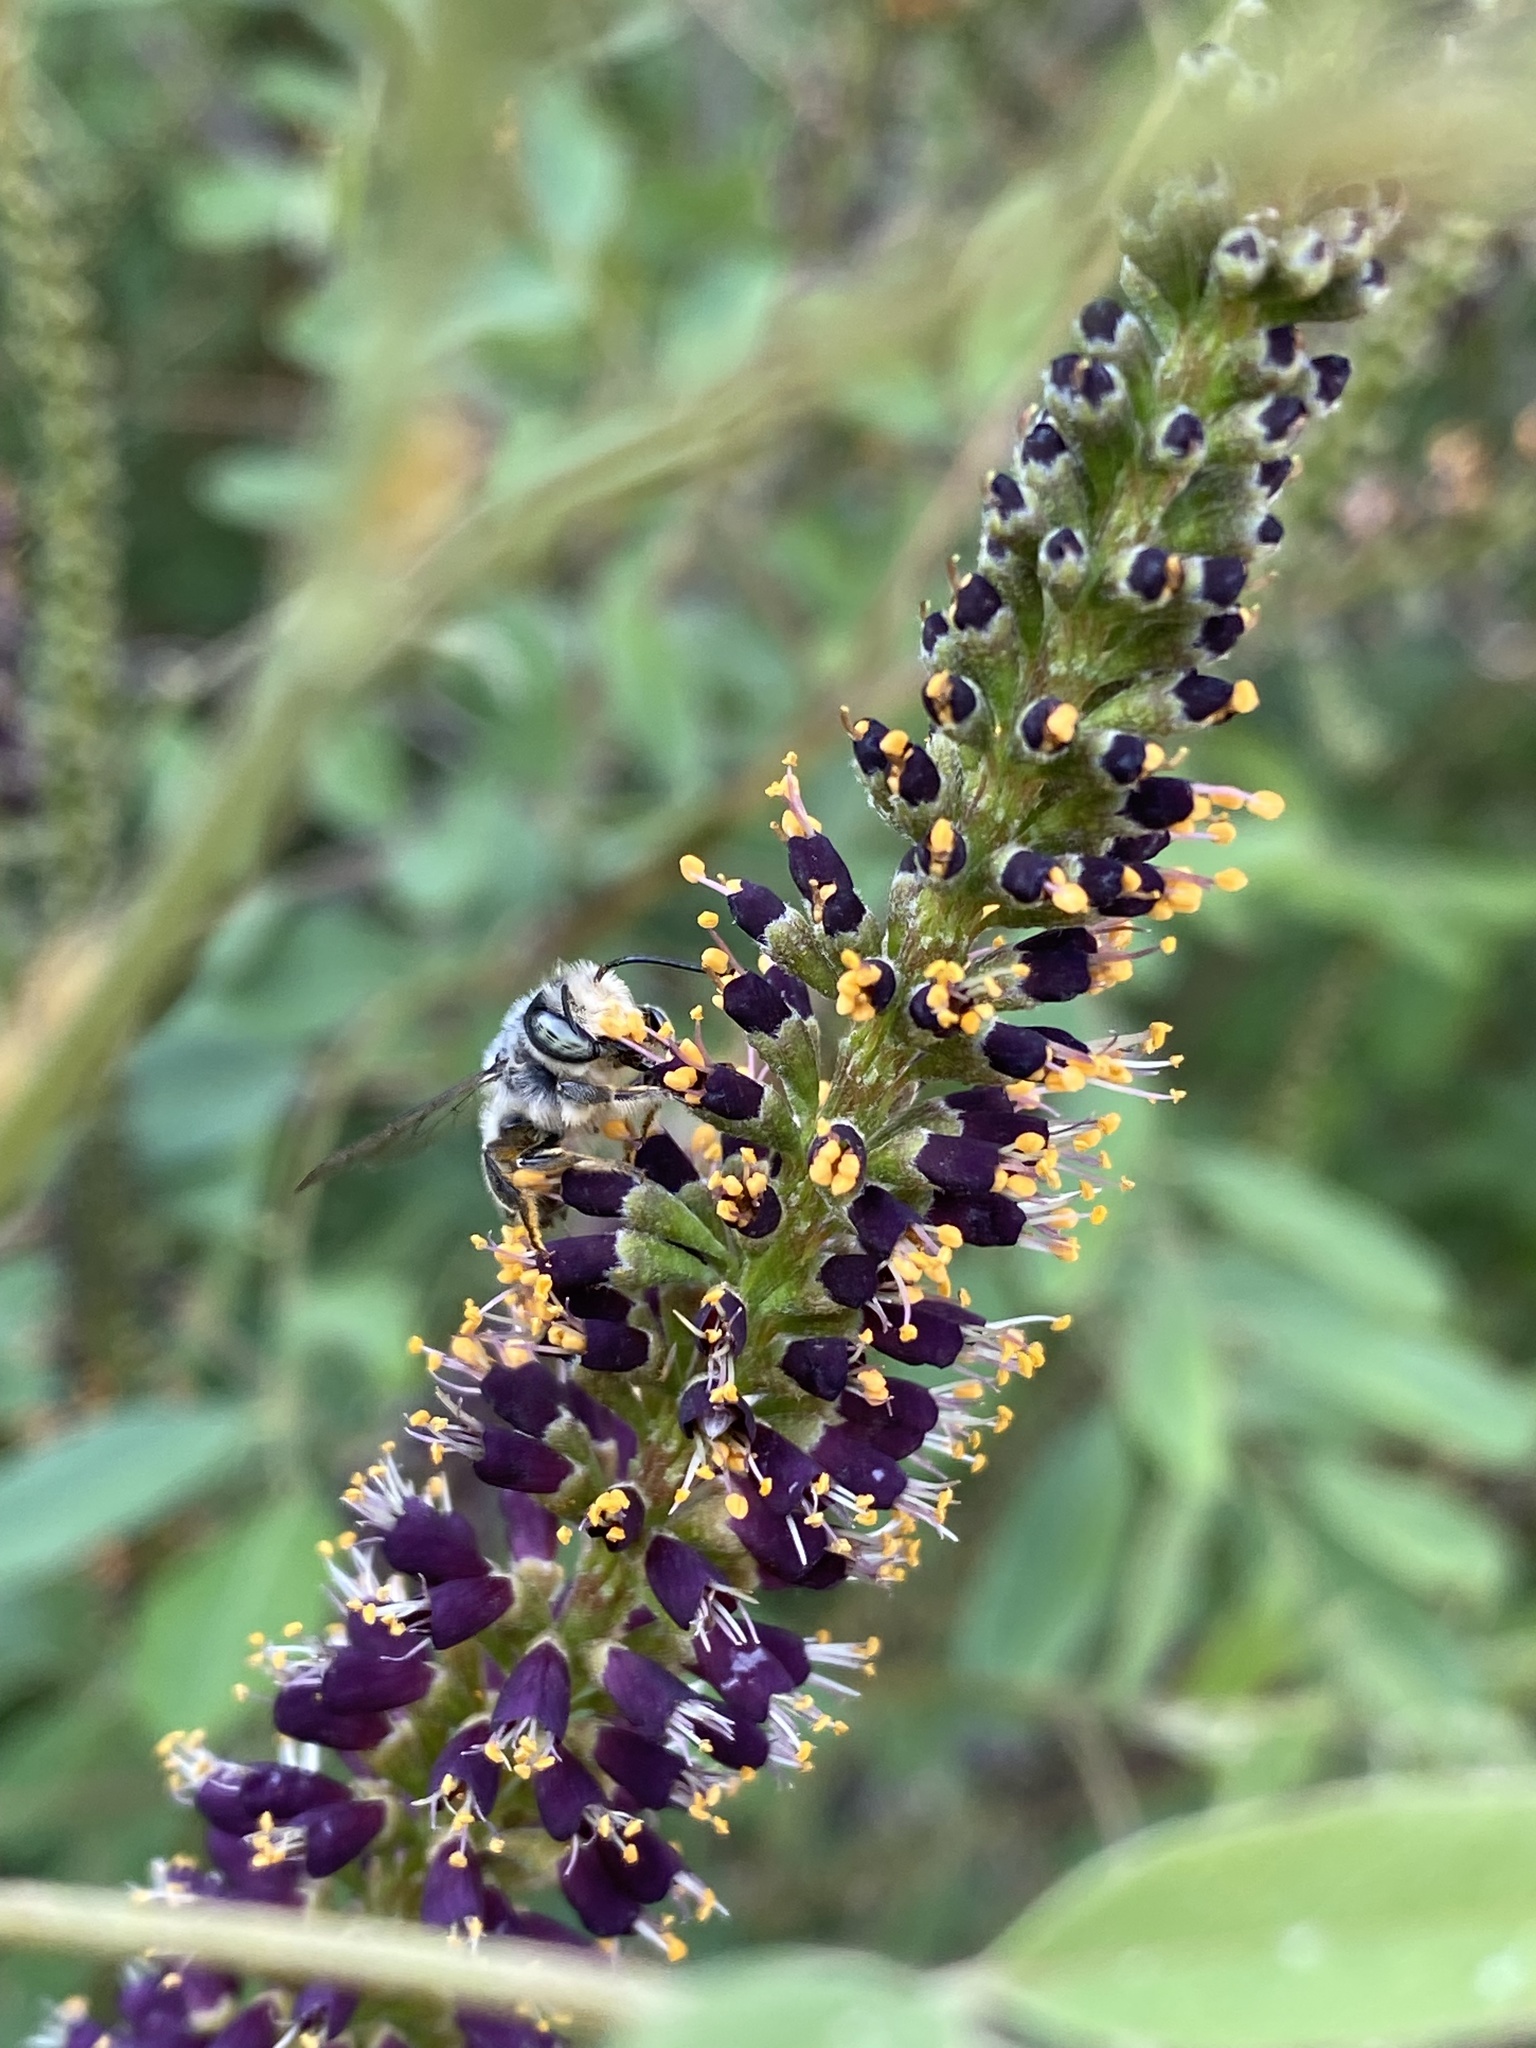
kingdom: Animalia
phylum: Arthropoda
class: Insecta
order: Hymenoptera
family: Megachilidae
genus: Megachile
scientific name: Megachile
